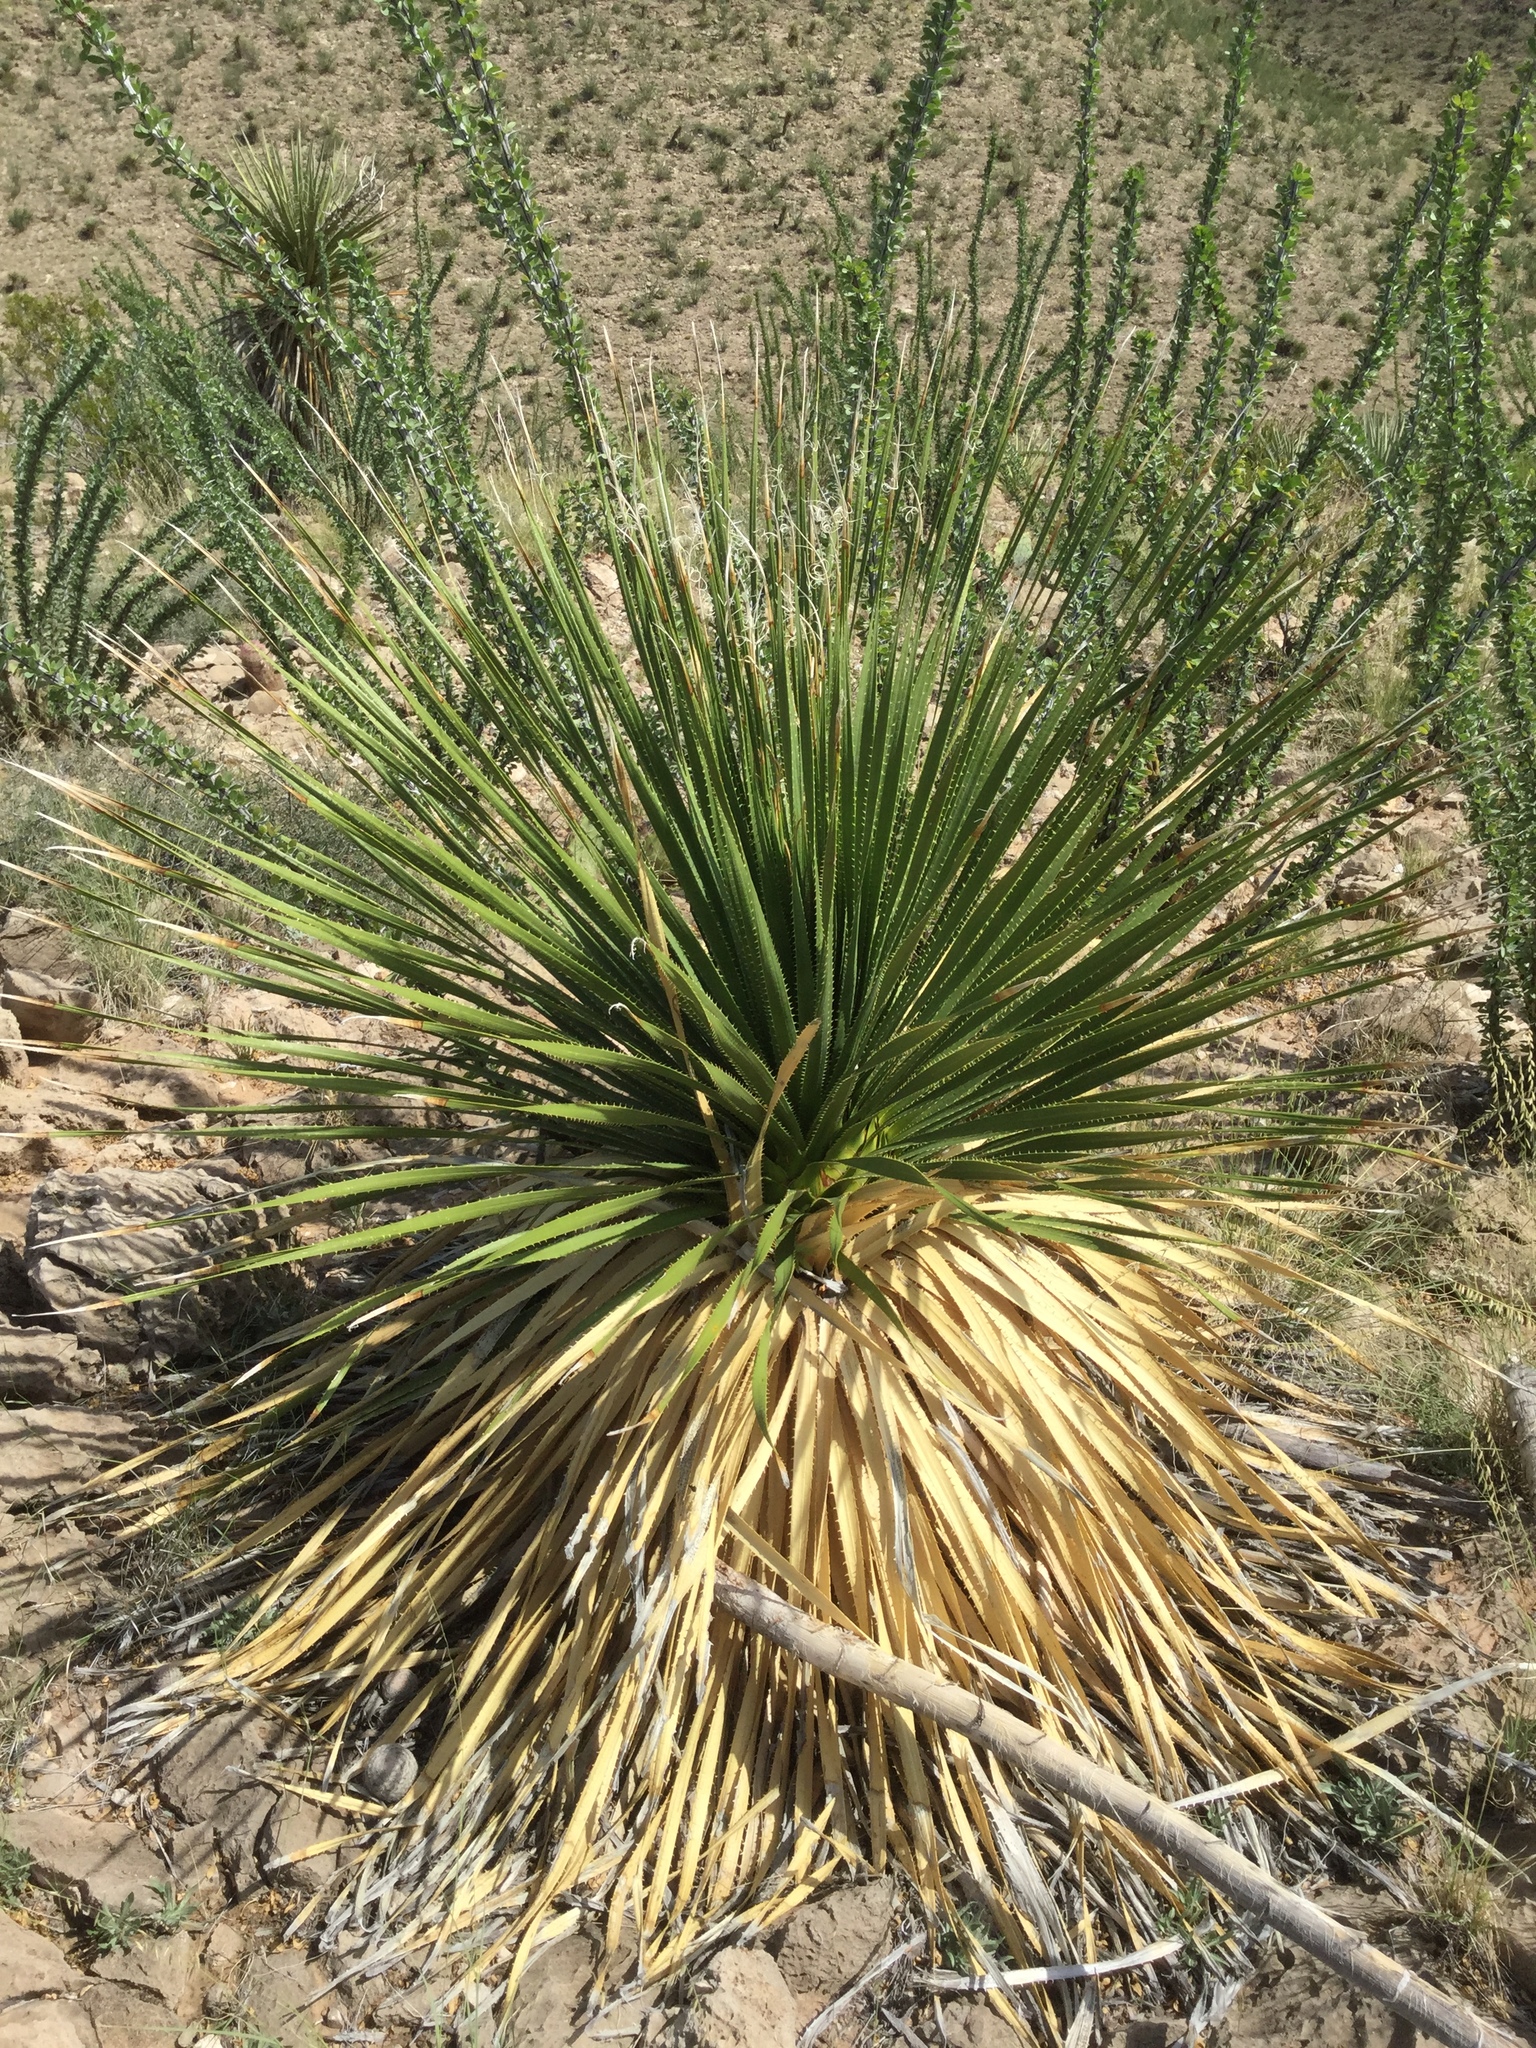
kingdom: Plantae
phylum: Tracheophyta
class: Liliopsida
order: Asparagales
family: Asparagaceae
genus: Dasylirion
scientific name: Dasylirion leiophyllum
